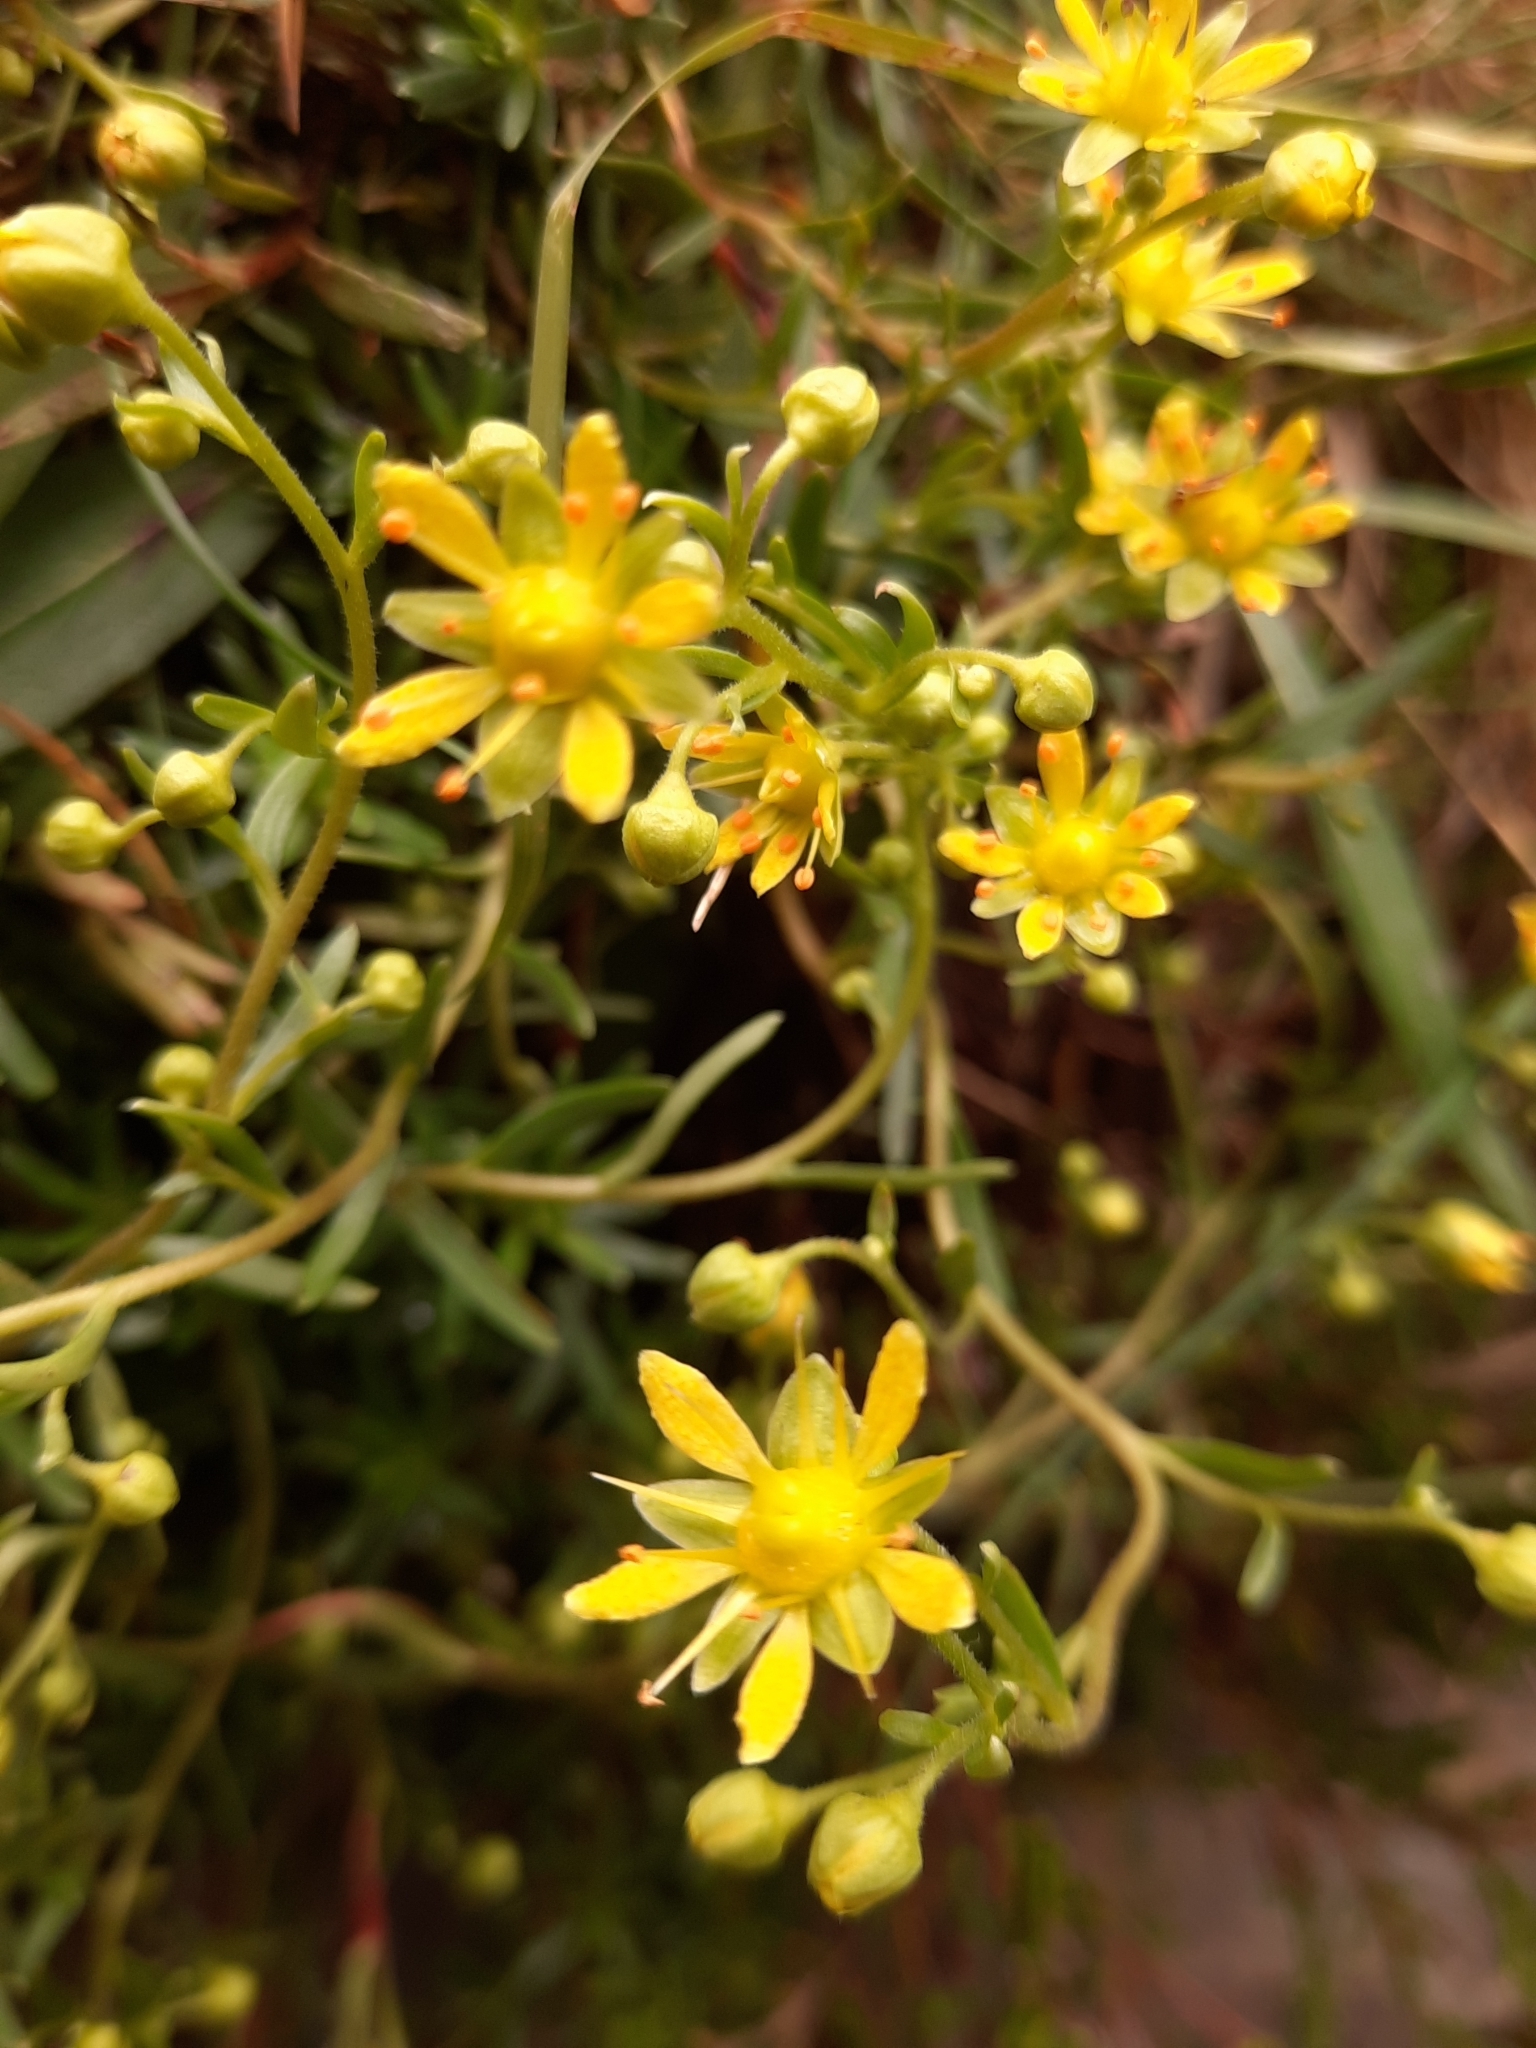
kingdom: Plantae
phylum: Tracheophyta
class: Magnoliopsida
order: Saxifragales
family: Saxifragaceae
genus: Saxifraga
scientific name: Saxifraga aizoides
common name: Yellow mountain saxifrage
